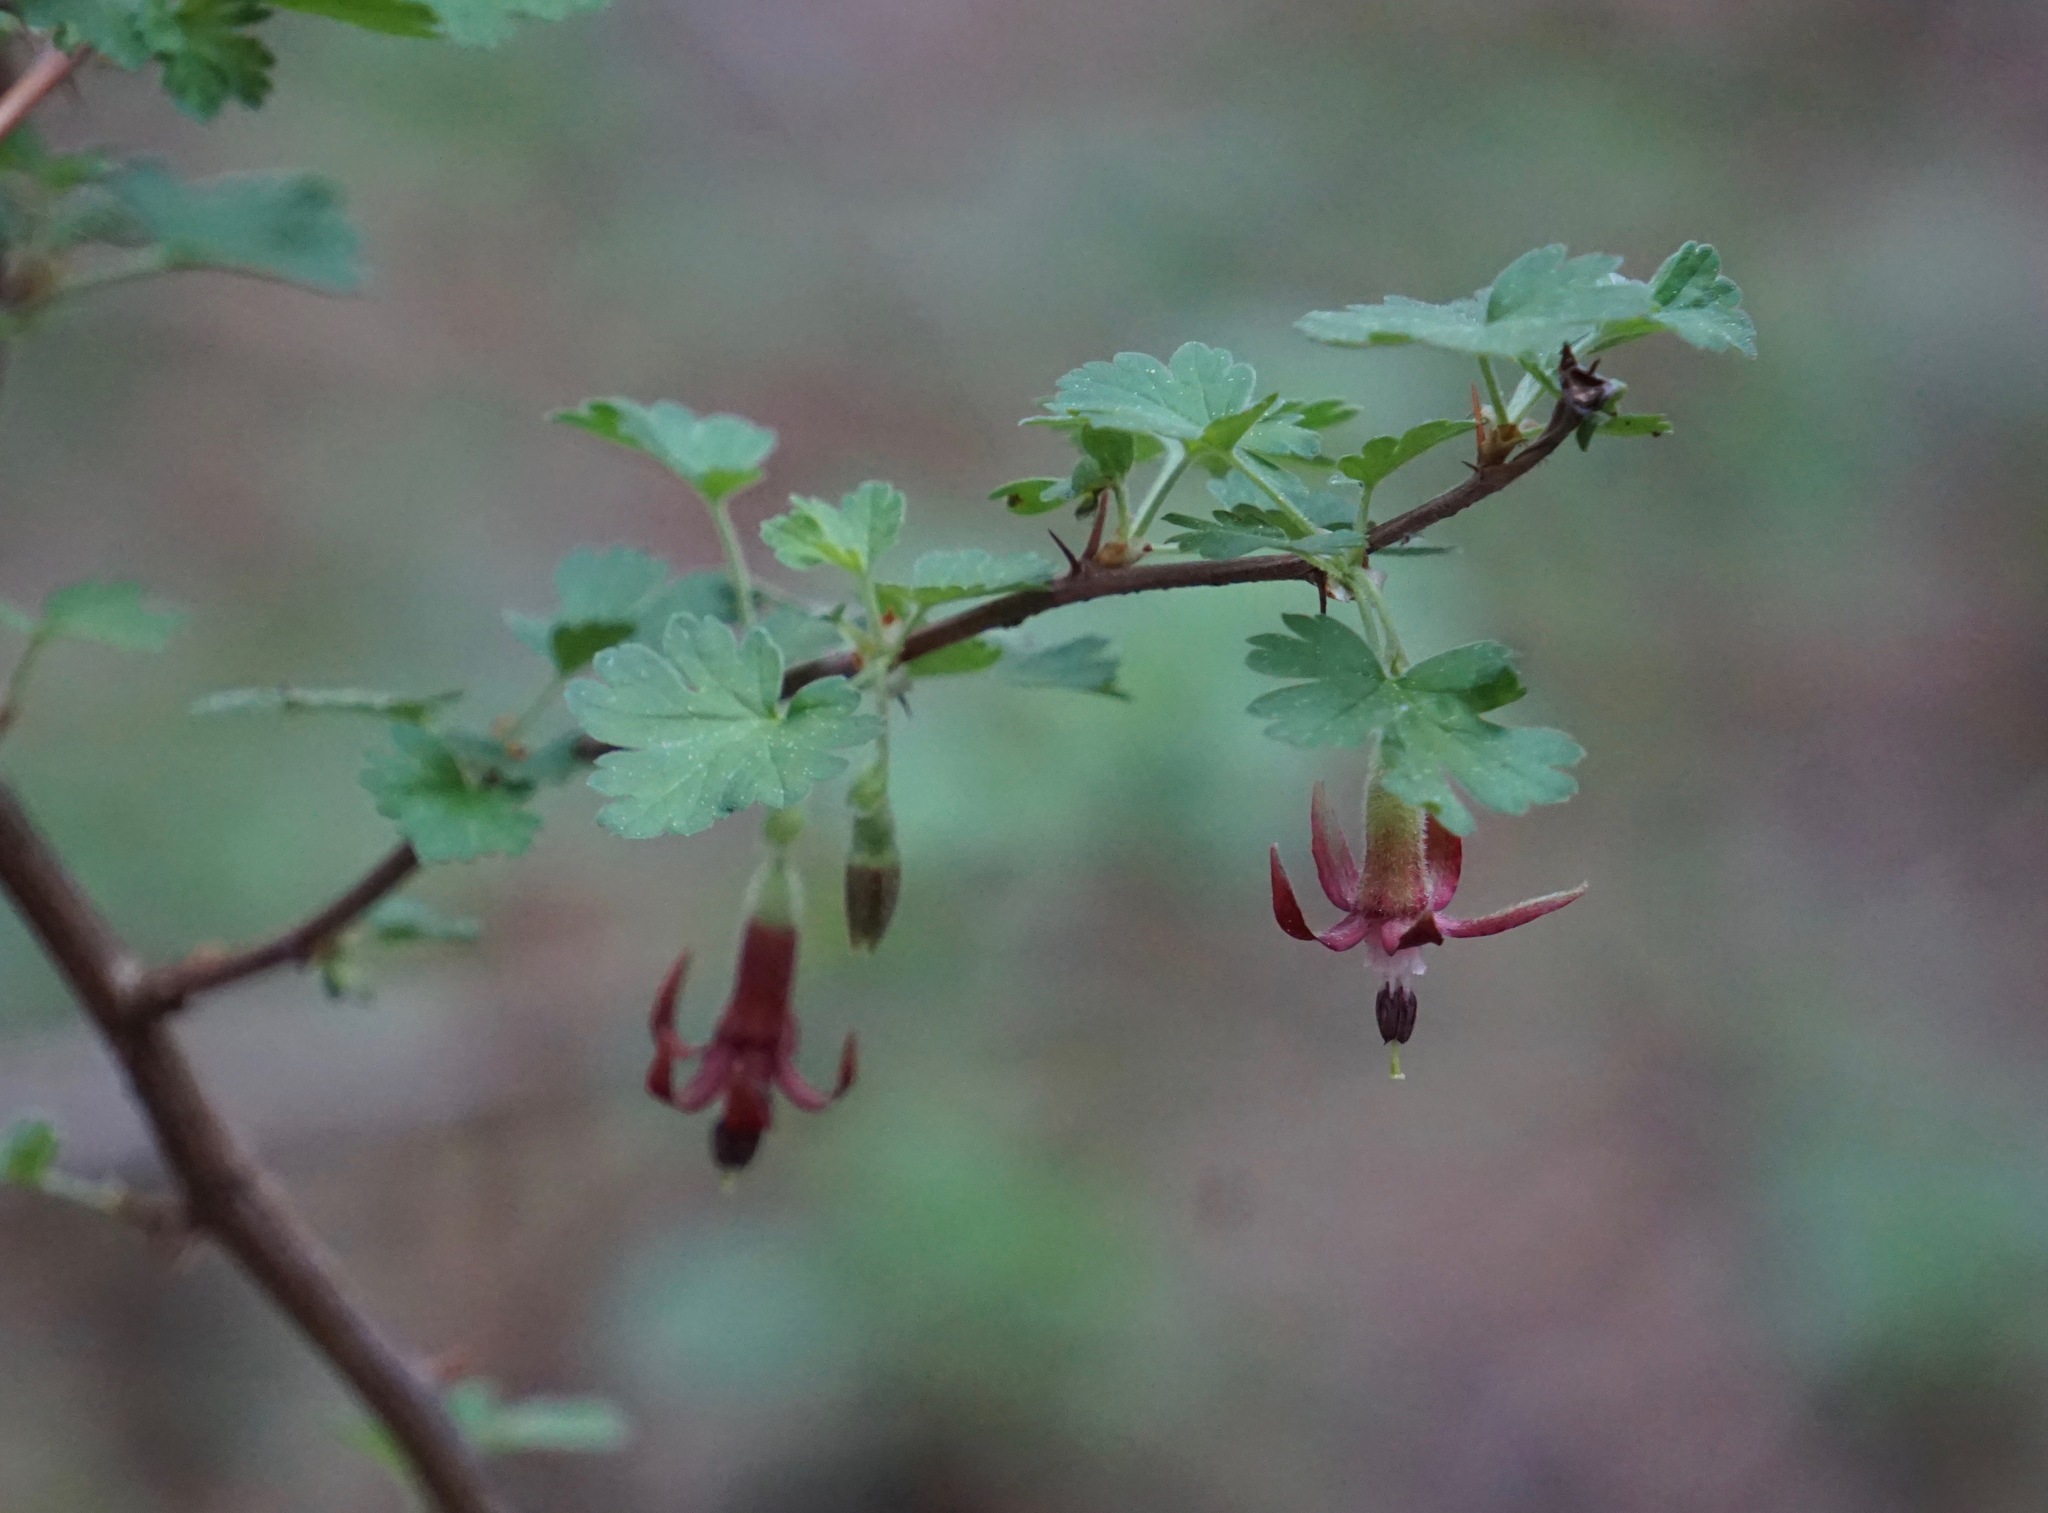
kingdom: Plantae
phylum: Tracheophyta
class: Magnoliopsida
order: Saxifragales
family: Grossulariaceae
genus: Ribes
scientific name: Ribes roezlii
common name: Sierra gooseberry
